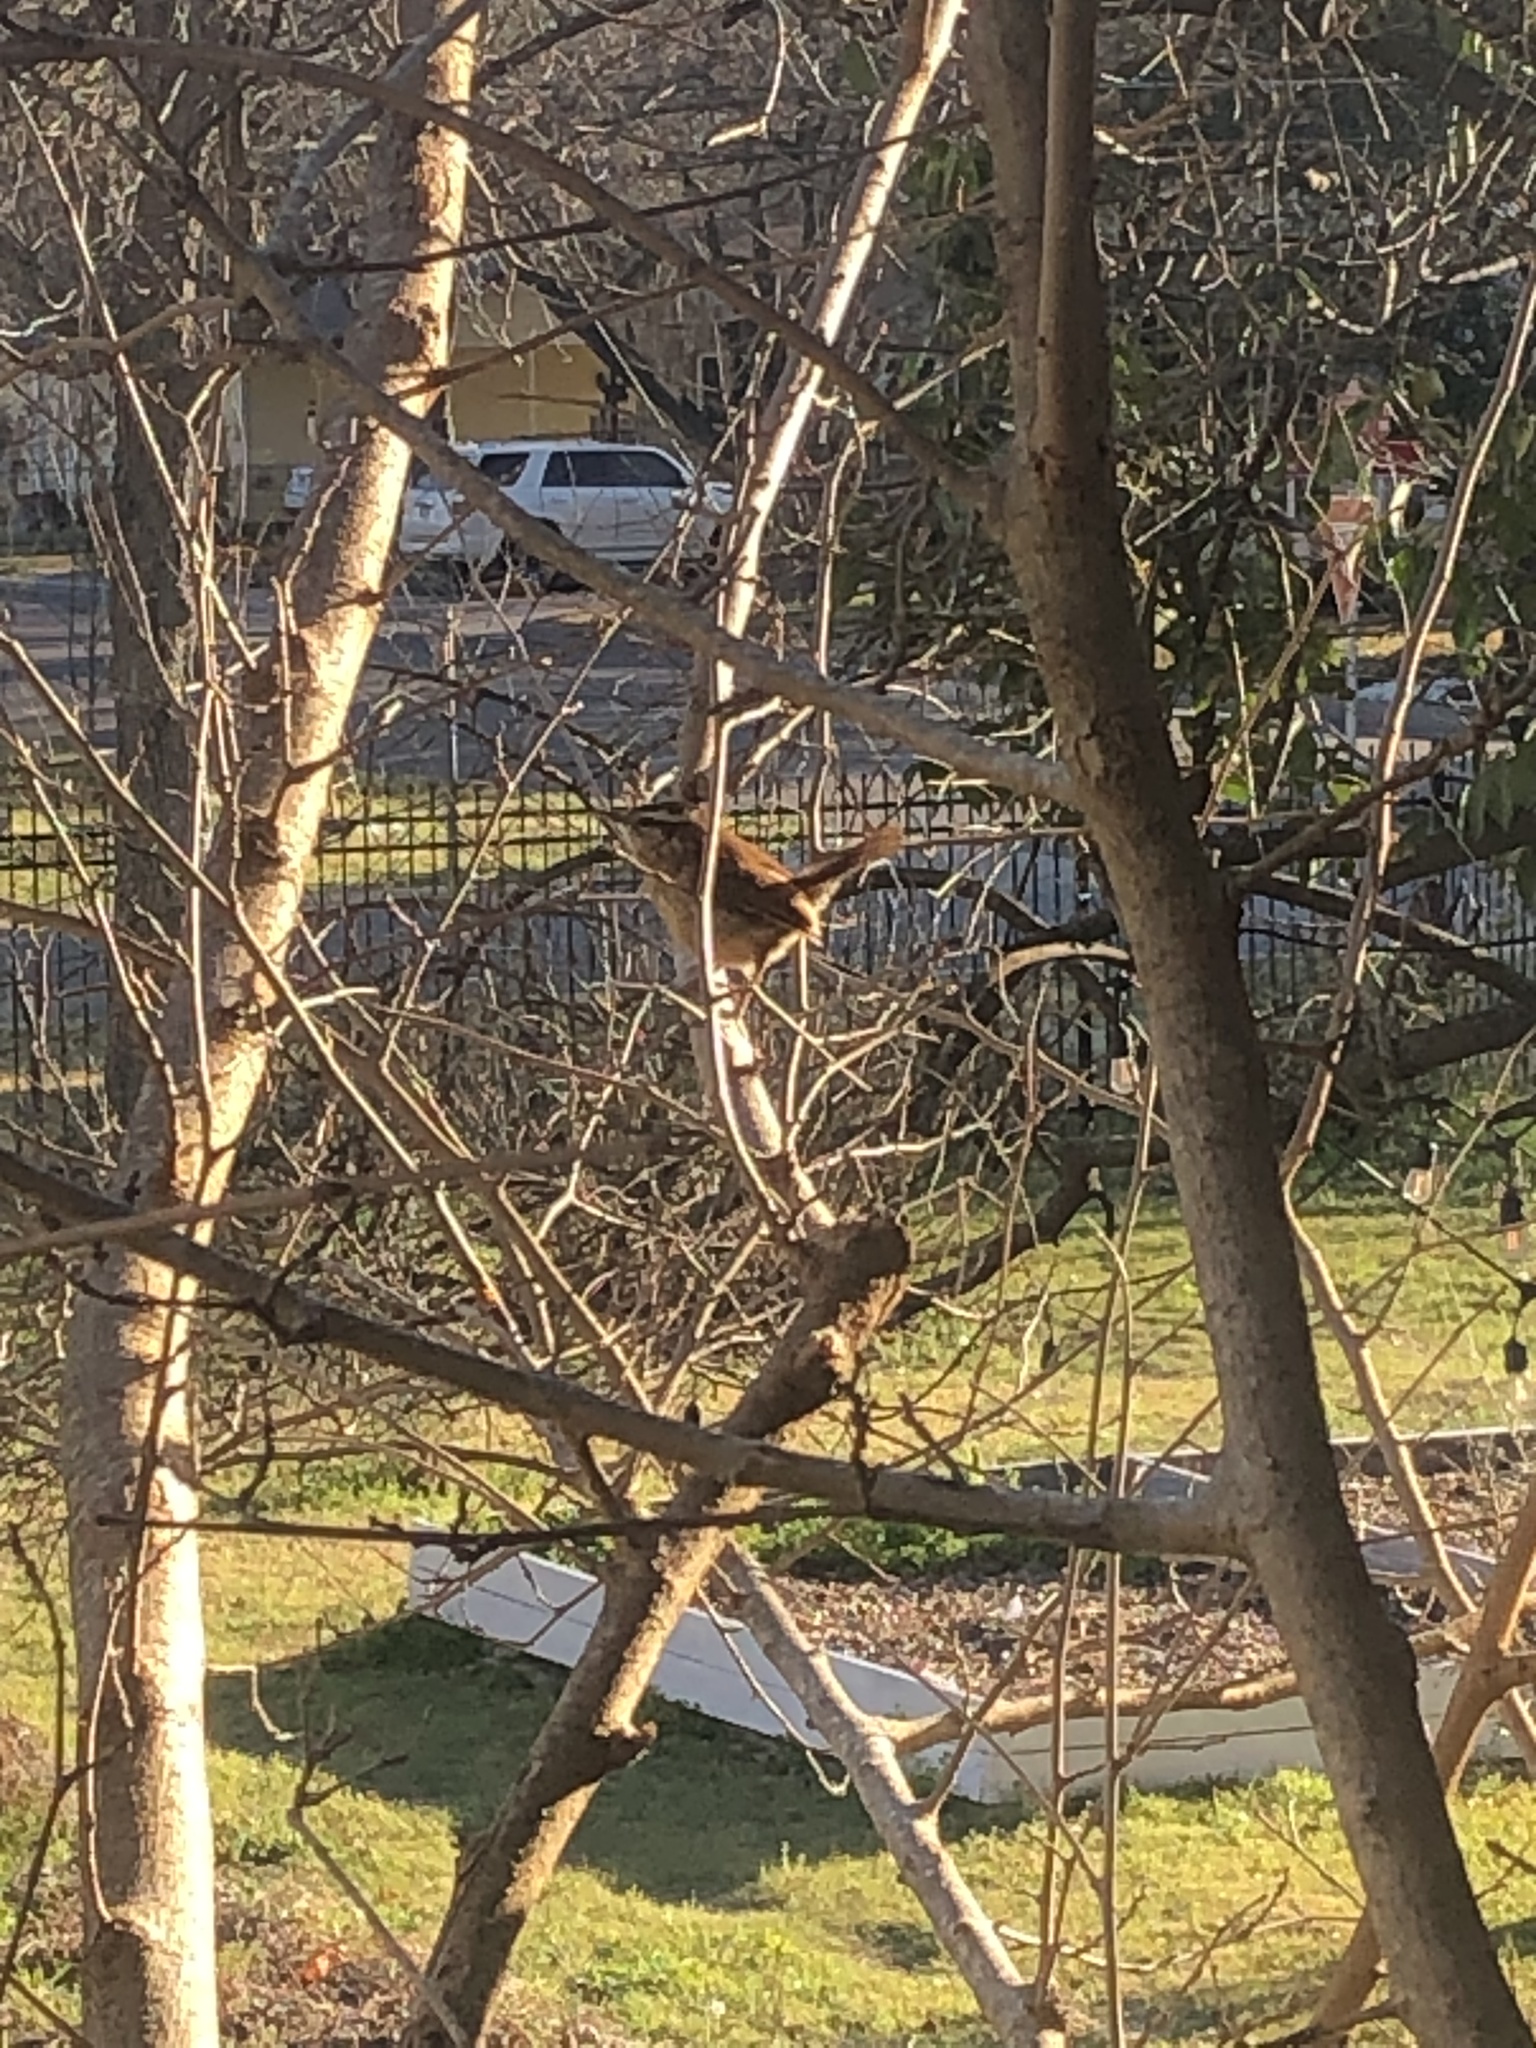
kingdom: Animalia
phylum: Chordata
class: Aves
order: Passeriformes
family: Troglodytidae
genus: Thryothorus
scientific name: Thryothorus ludovicianus
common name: Carolina wren
